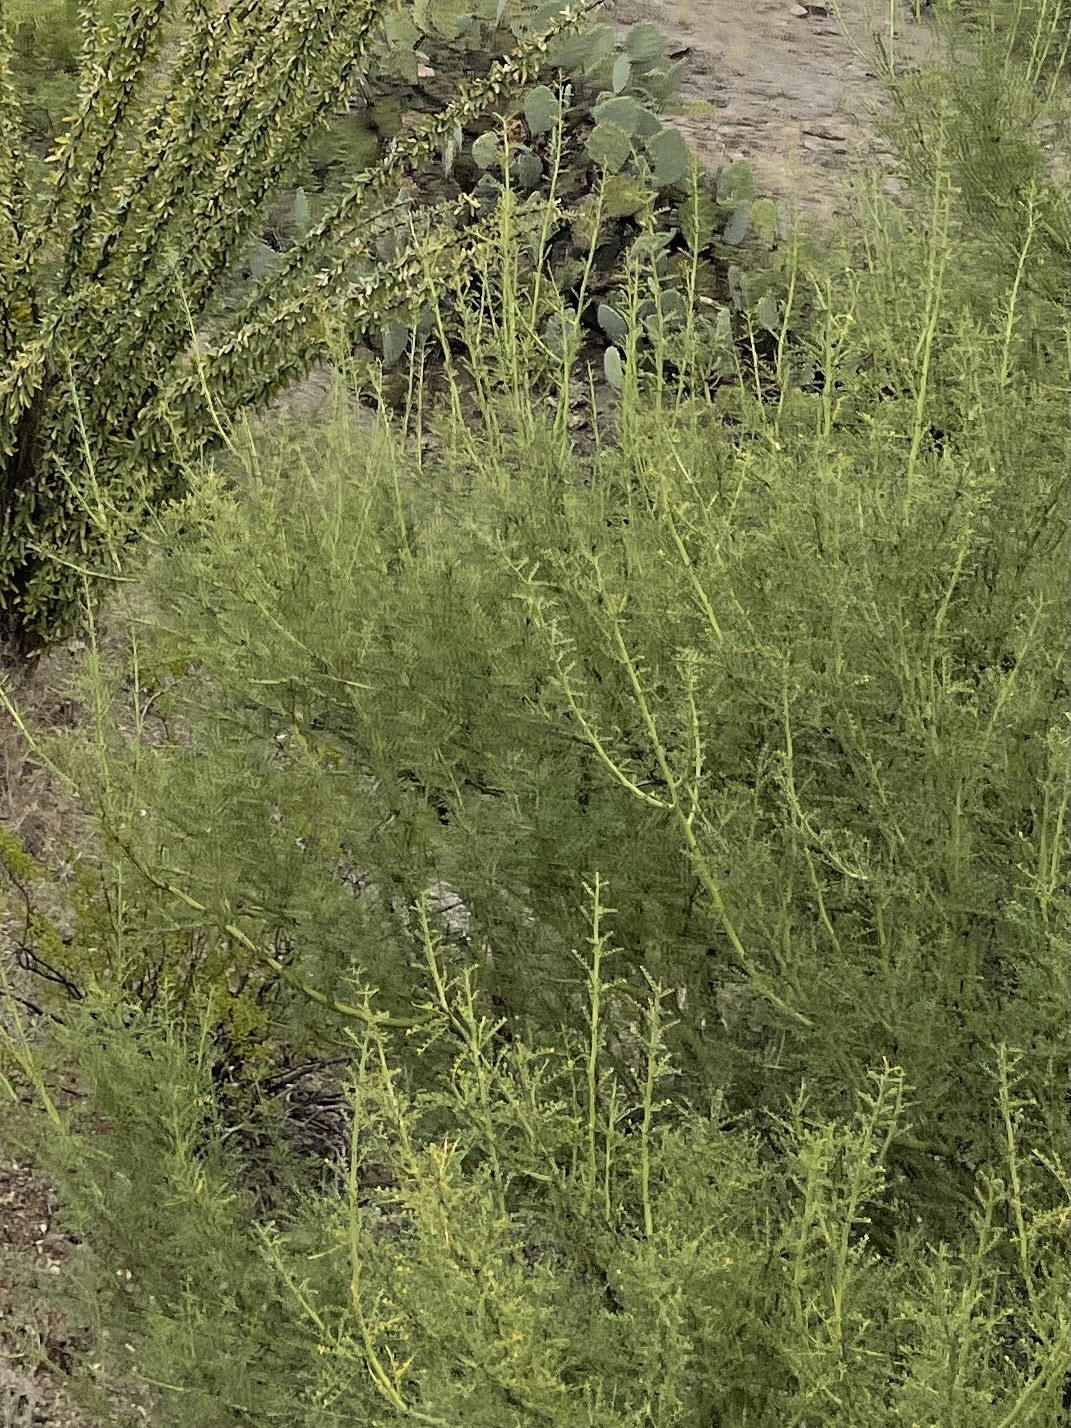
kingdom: Plantae
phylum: Tracheophyta
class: Magnoliopsida
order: Fabales
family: Fabaceae
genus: Parkinsonia
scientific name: Parkinsonia microphylla
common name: Yellow paloverde
